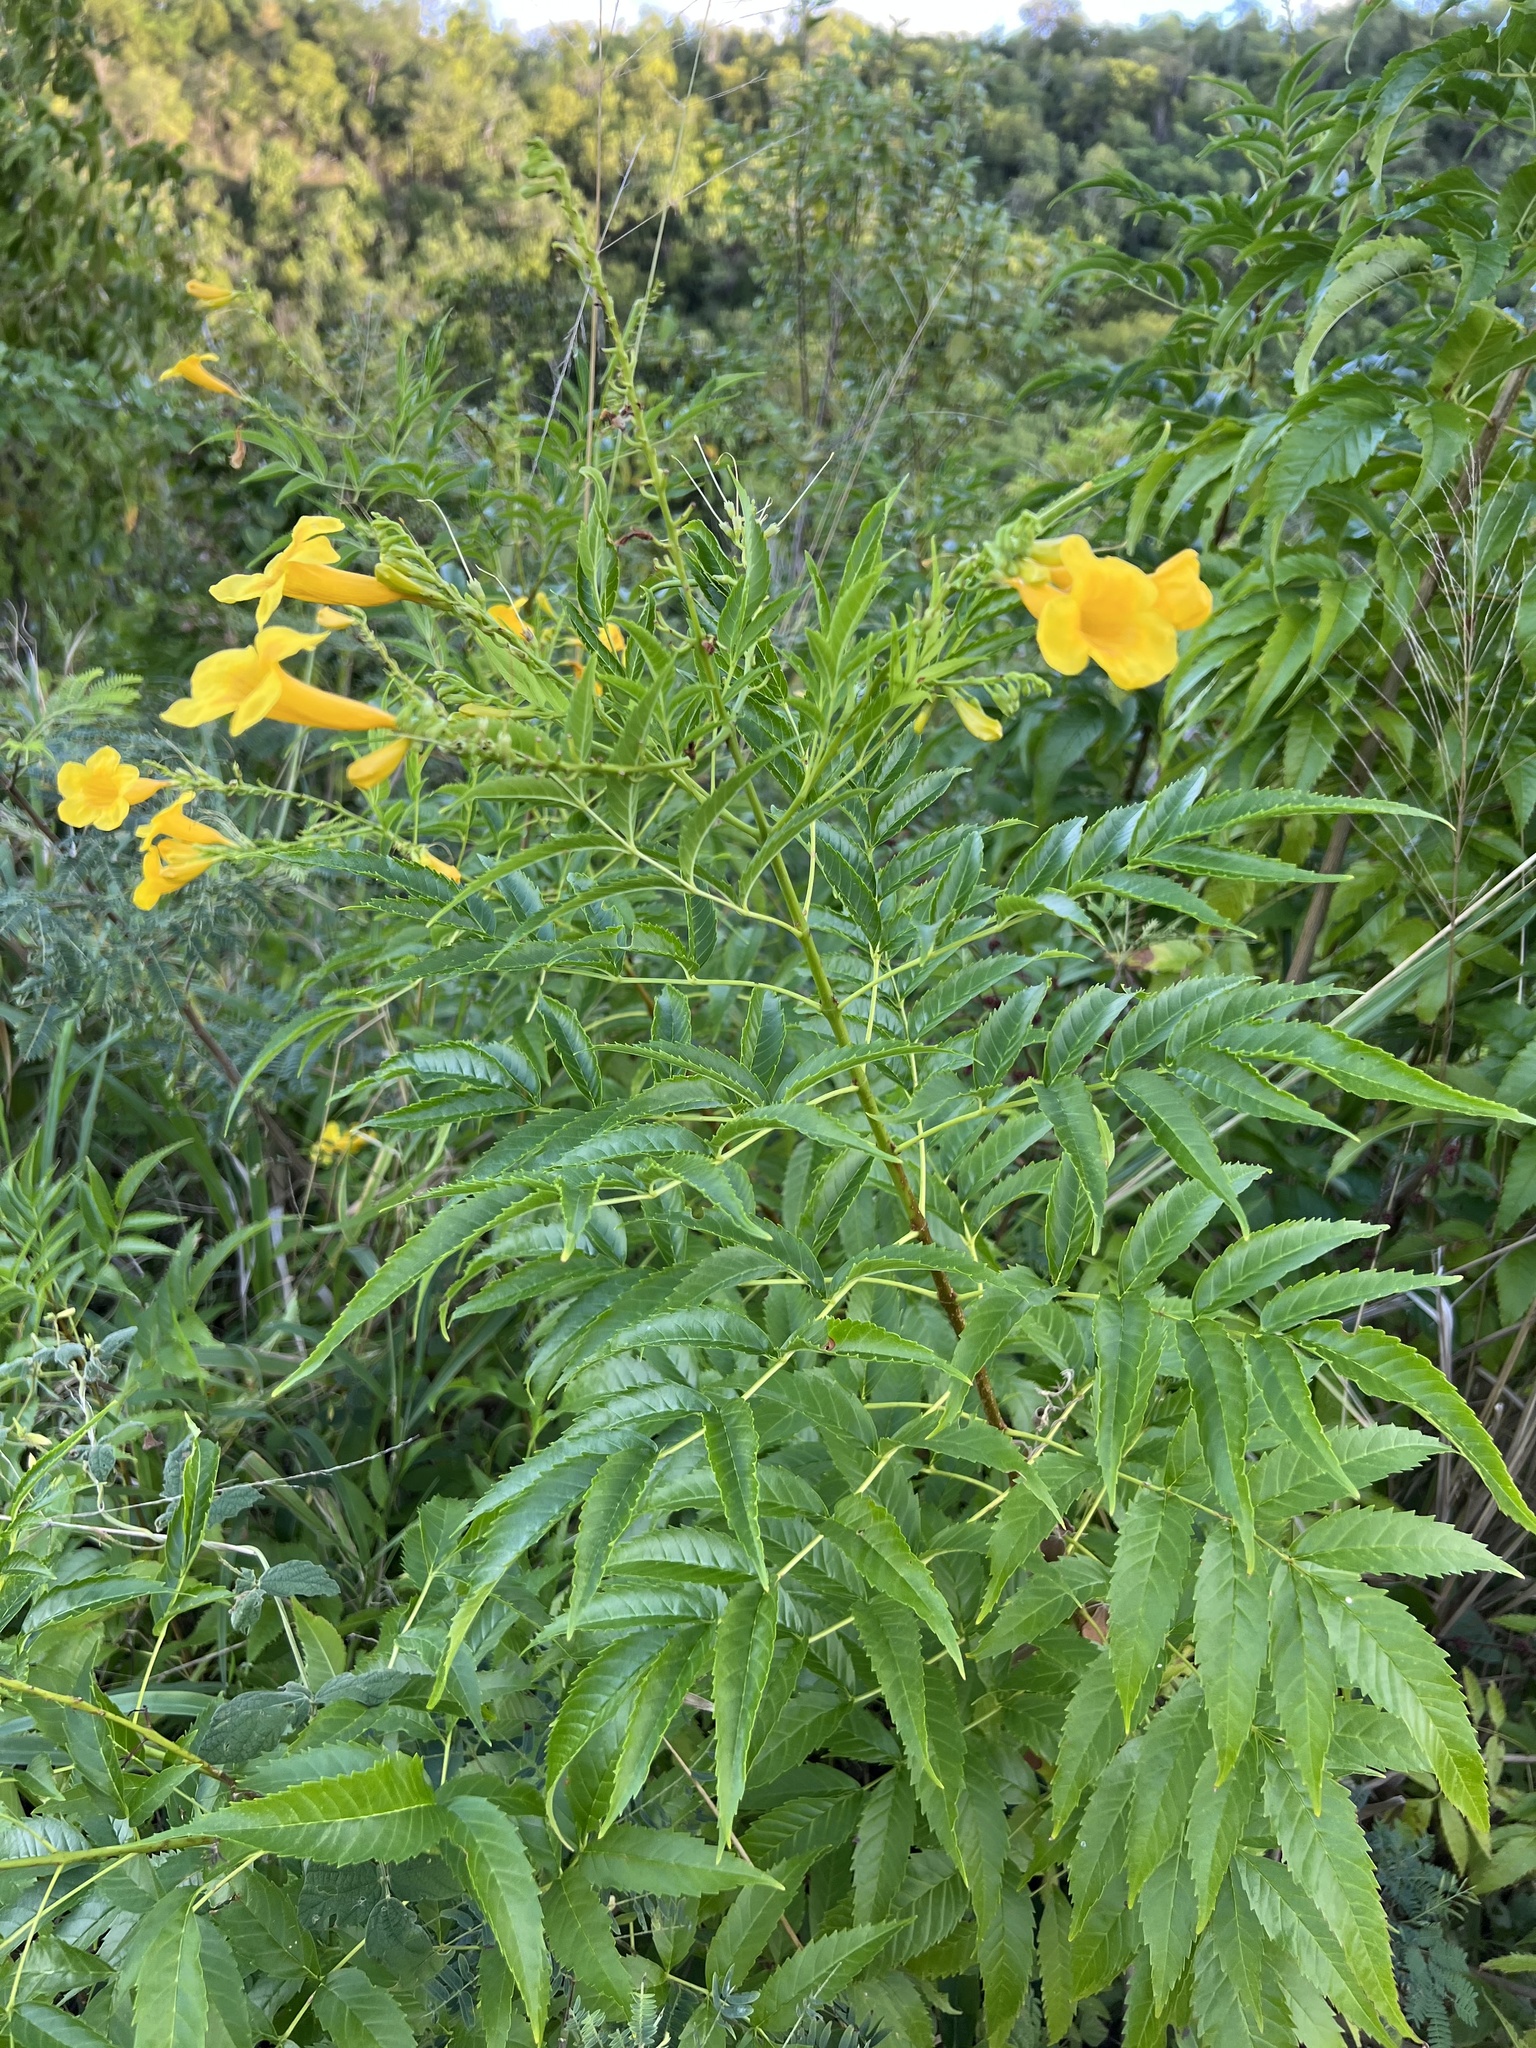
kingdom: Plantae
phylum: Tracheophyta
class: Magnoliopsida
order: Lamiales
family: Bignoniaceae
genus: Tecoma
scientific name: Tecoma stans
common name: Yellow trumpetbush
